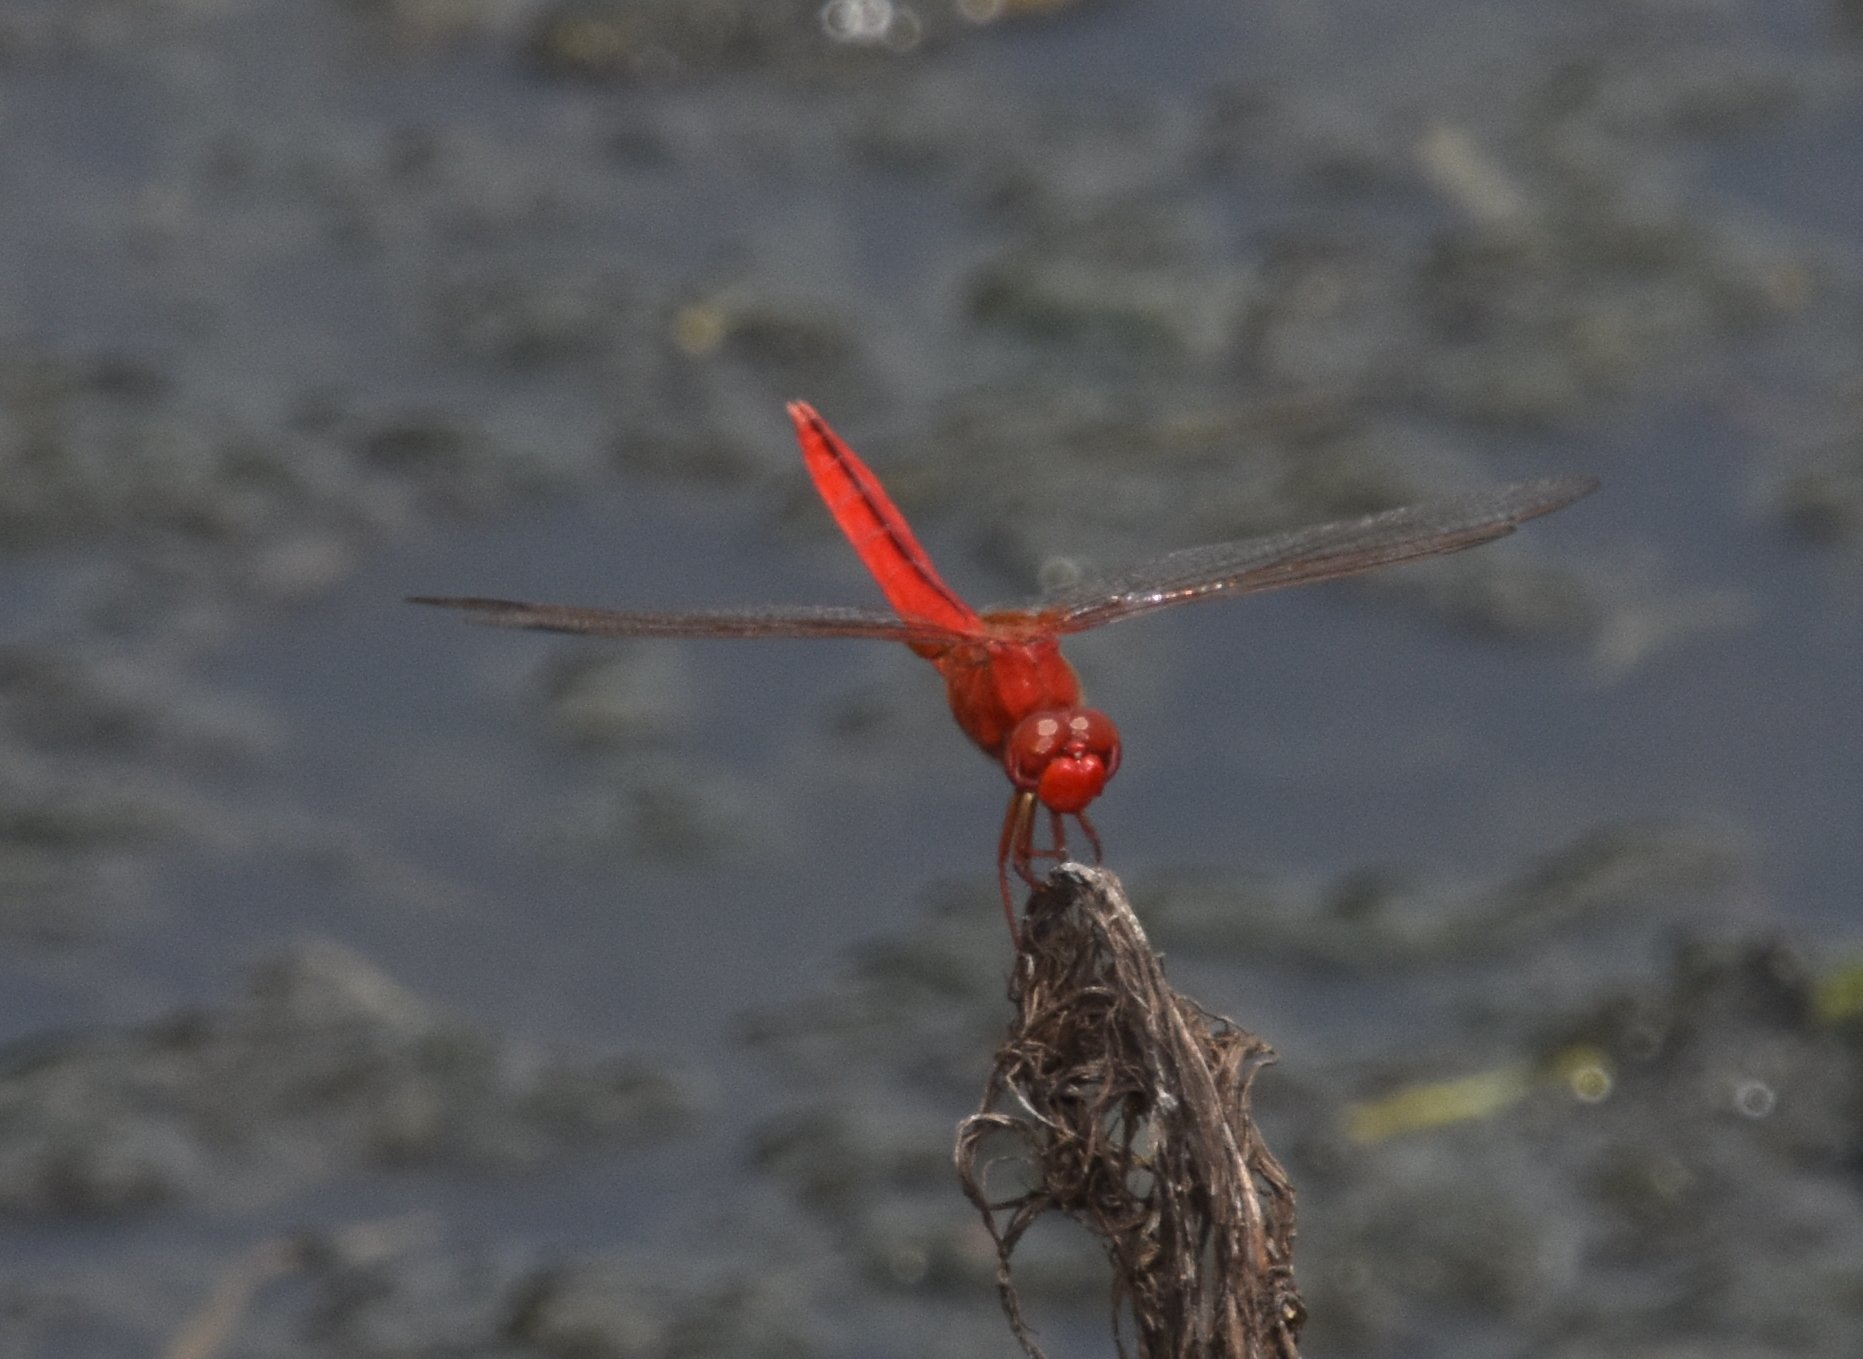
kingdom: Animalia
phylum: Arthropoda
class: Insecta
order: Odonata
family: Libellulidae
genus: Crocothemis
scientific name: Crocothemis servilia
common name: Scarlet skimmer
